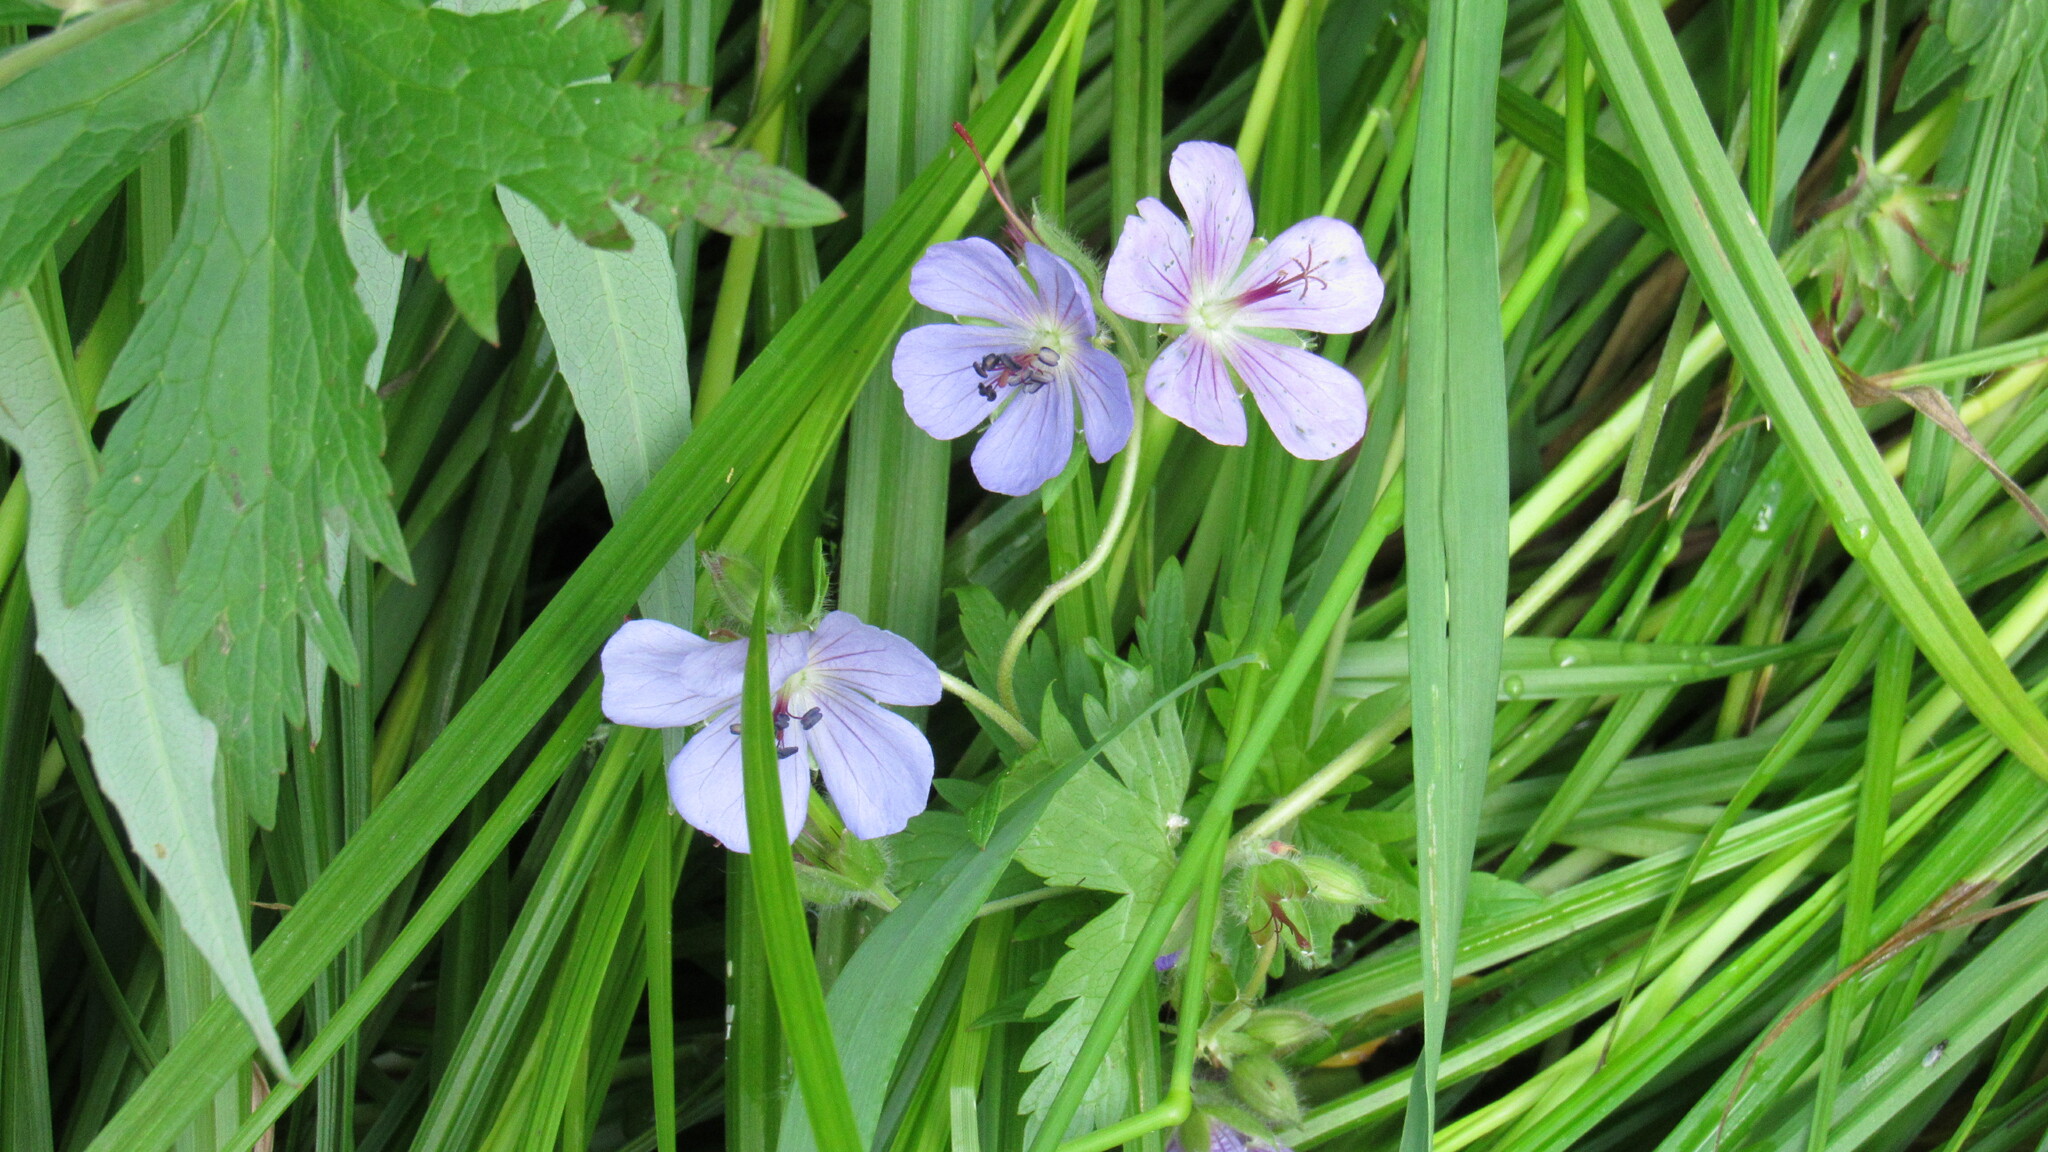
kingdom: Plantae
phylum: Tracheophyta
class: Magnoliopsida
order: Geraniales
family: Geraniaceae
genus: Geranium
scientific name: Geranium erianthum
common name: Northern crane's-bill
